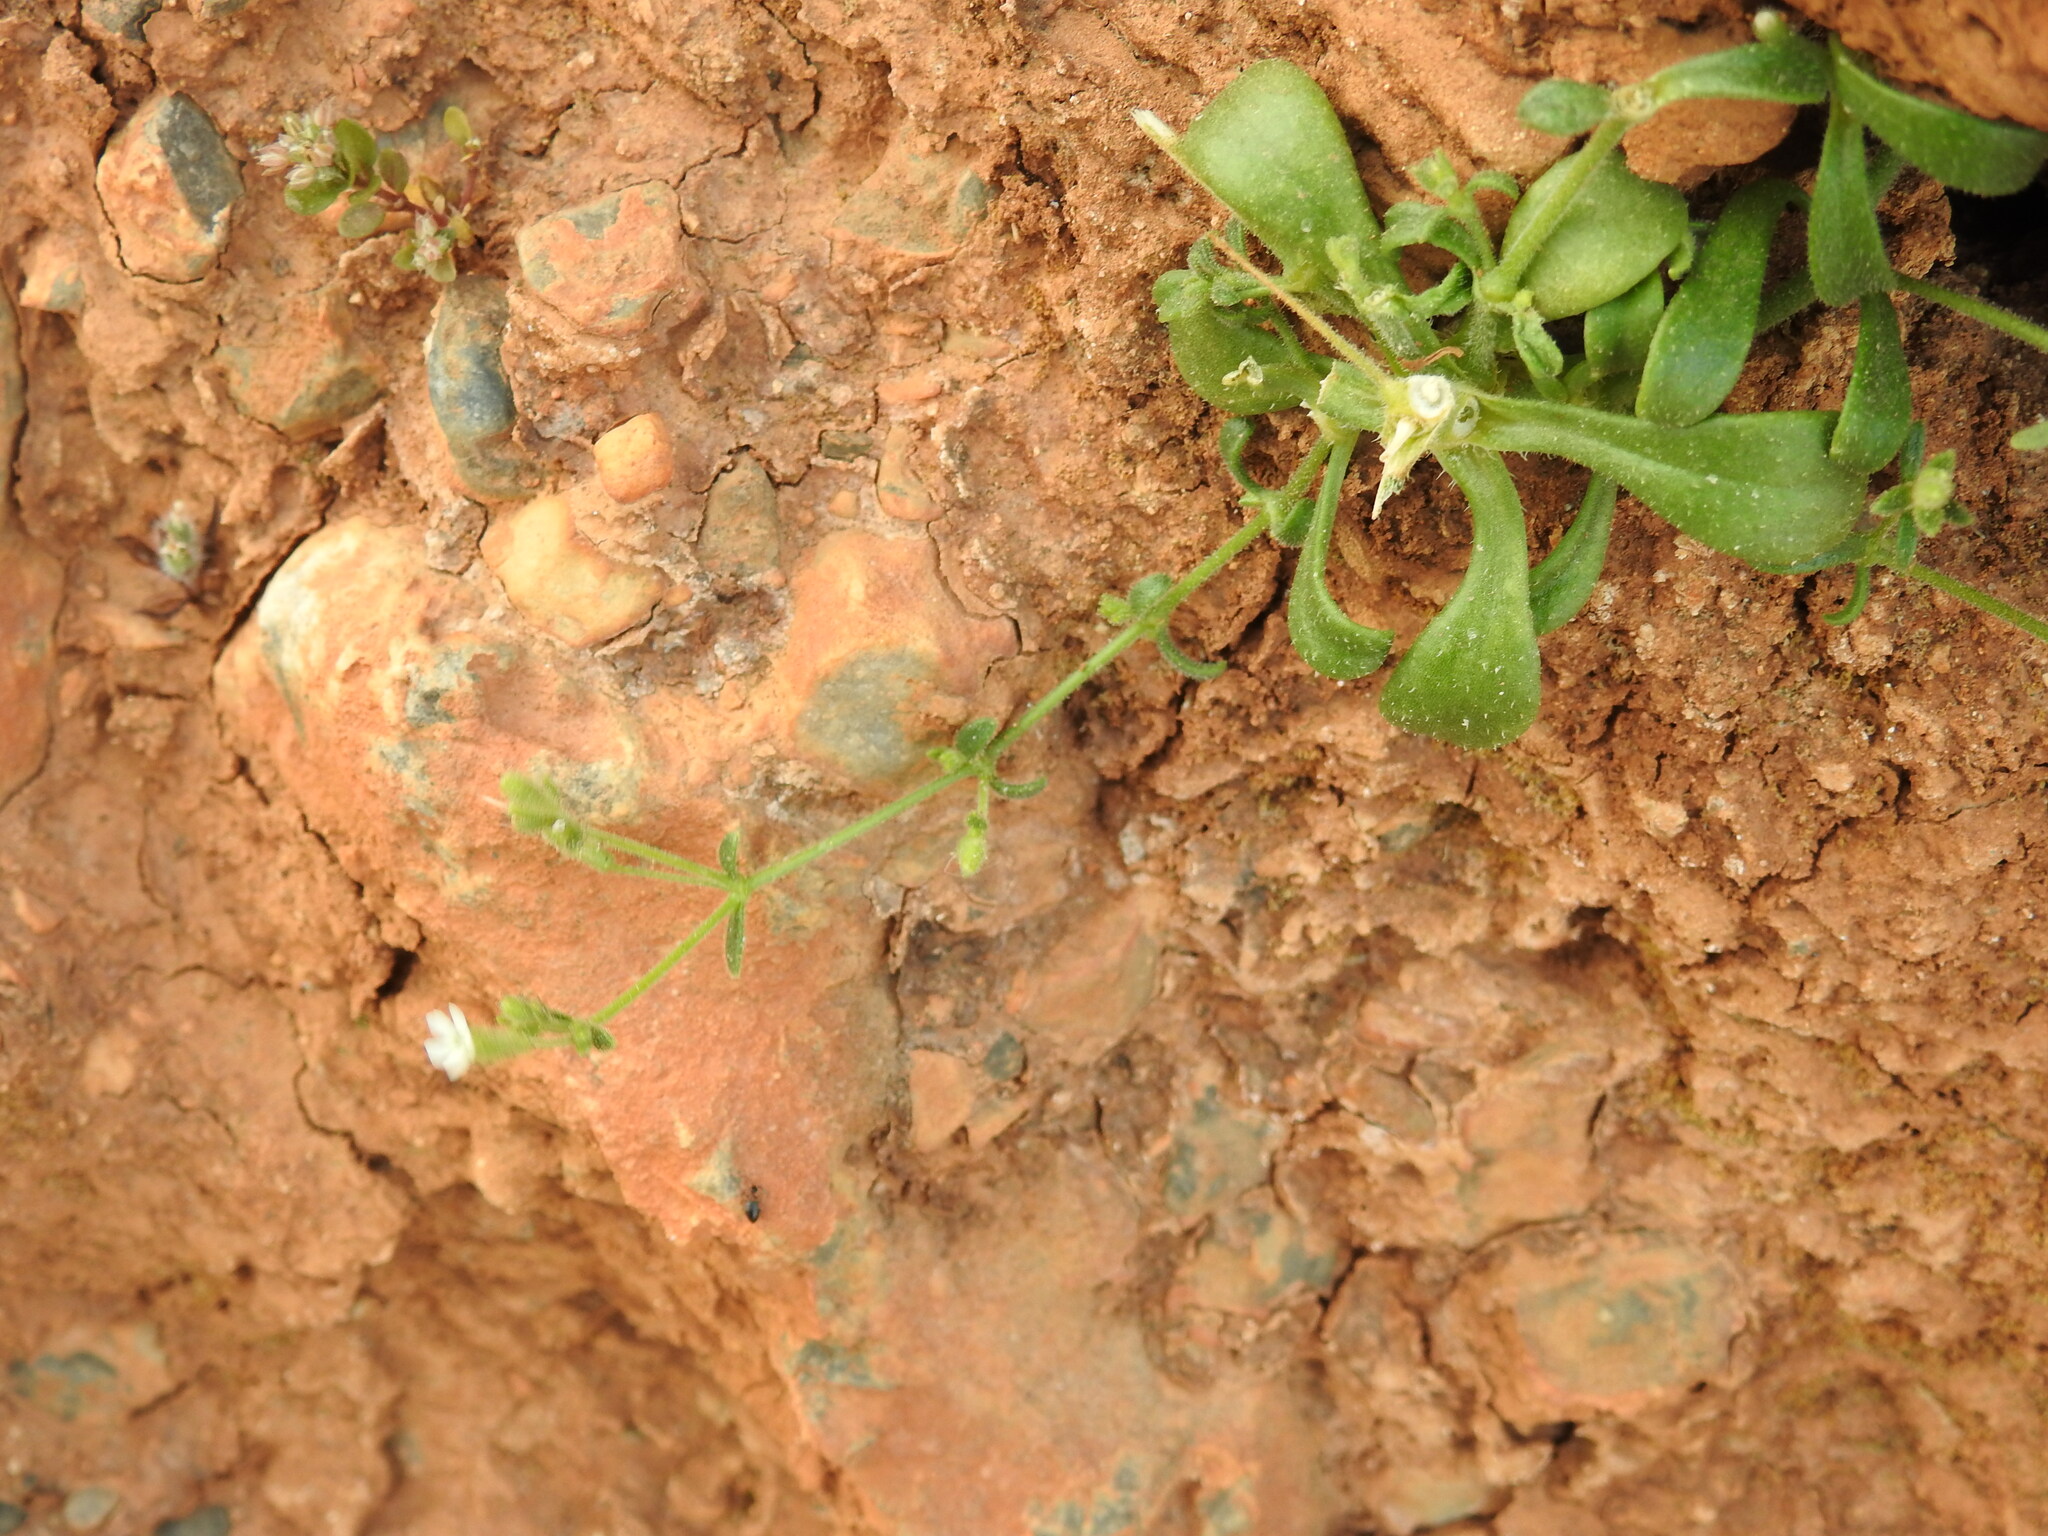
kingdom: Plantae
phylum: Tracheophyta
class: Magnoliopsida
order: Caryophyllales
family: Caryophyllaceae
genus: Silene
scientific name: Silene pinetorum
